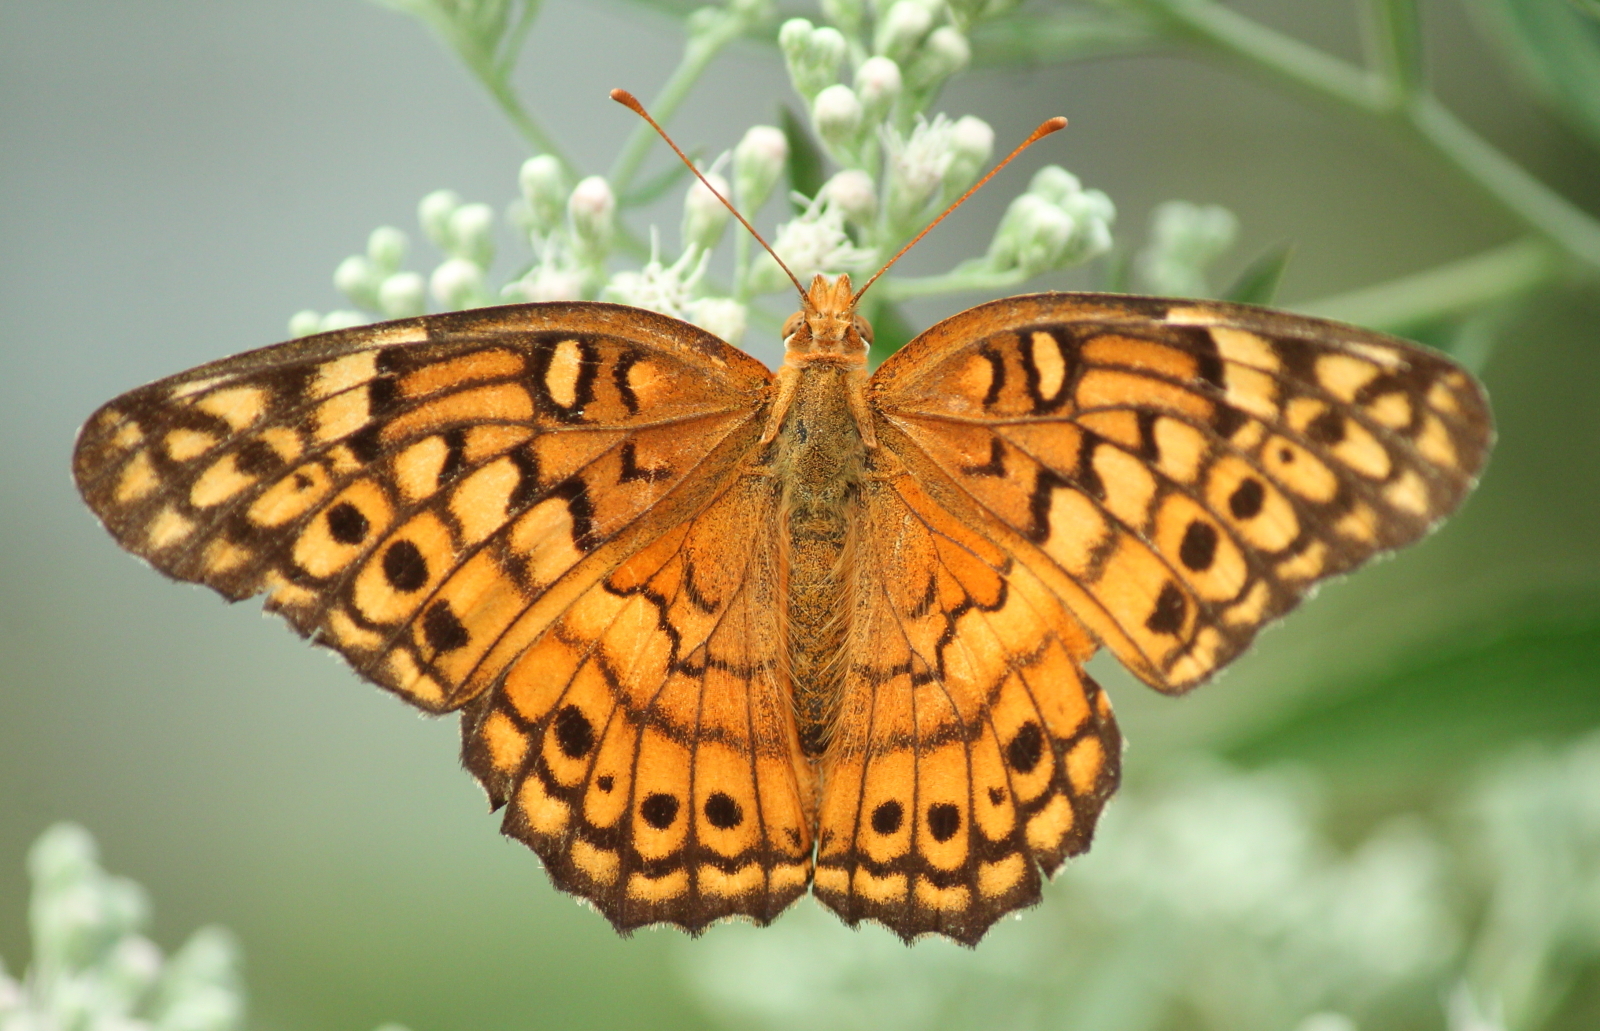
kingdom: Animalia
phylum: Arthropoda
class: Insecta
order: Lepidoptera
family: Nymphalidae
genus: Euptoieta
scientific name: Euptoieta claudia
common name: Variegated fritillary
